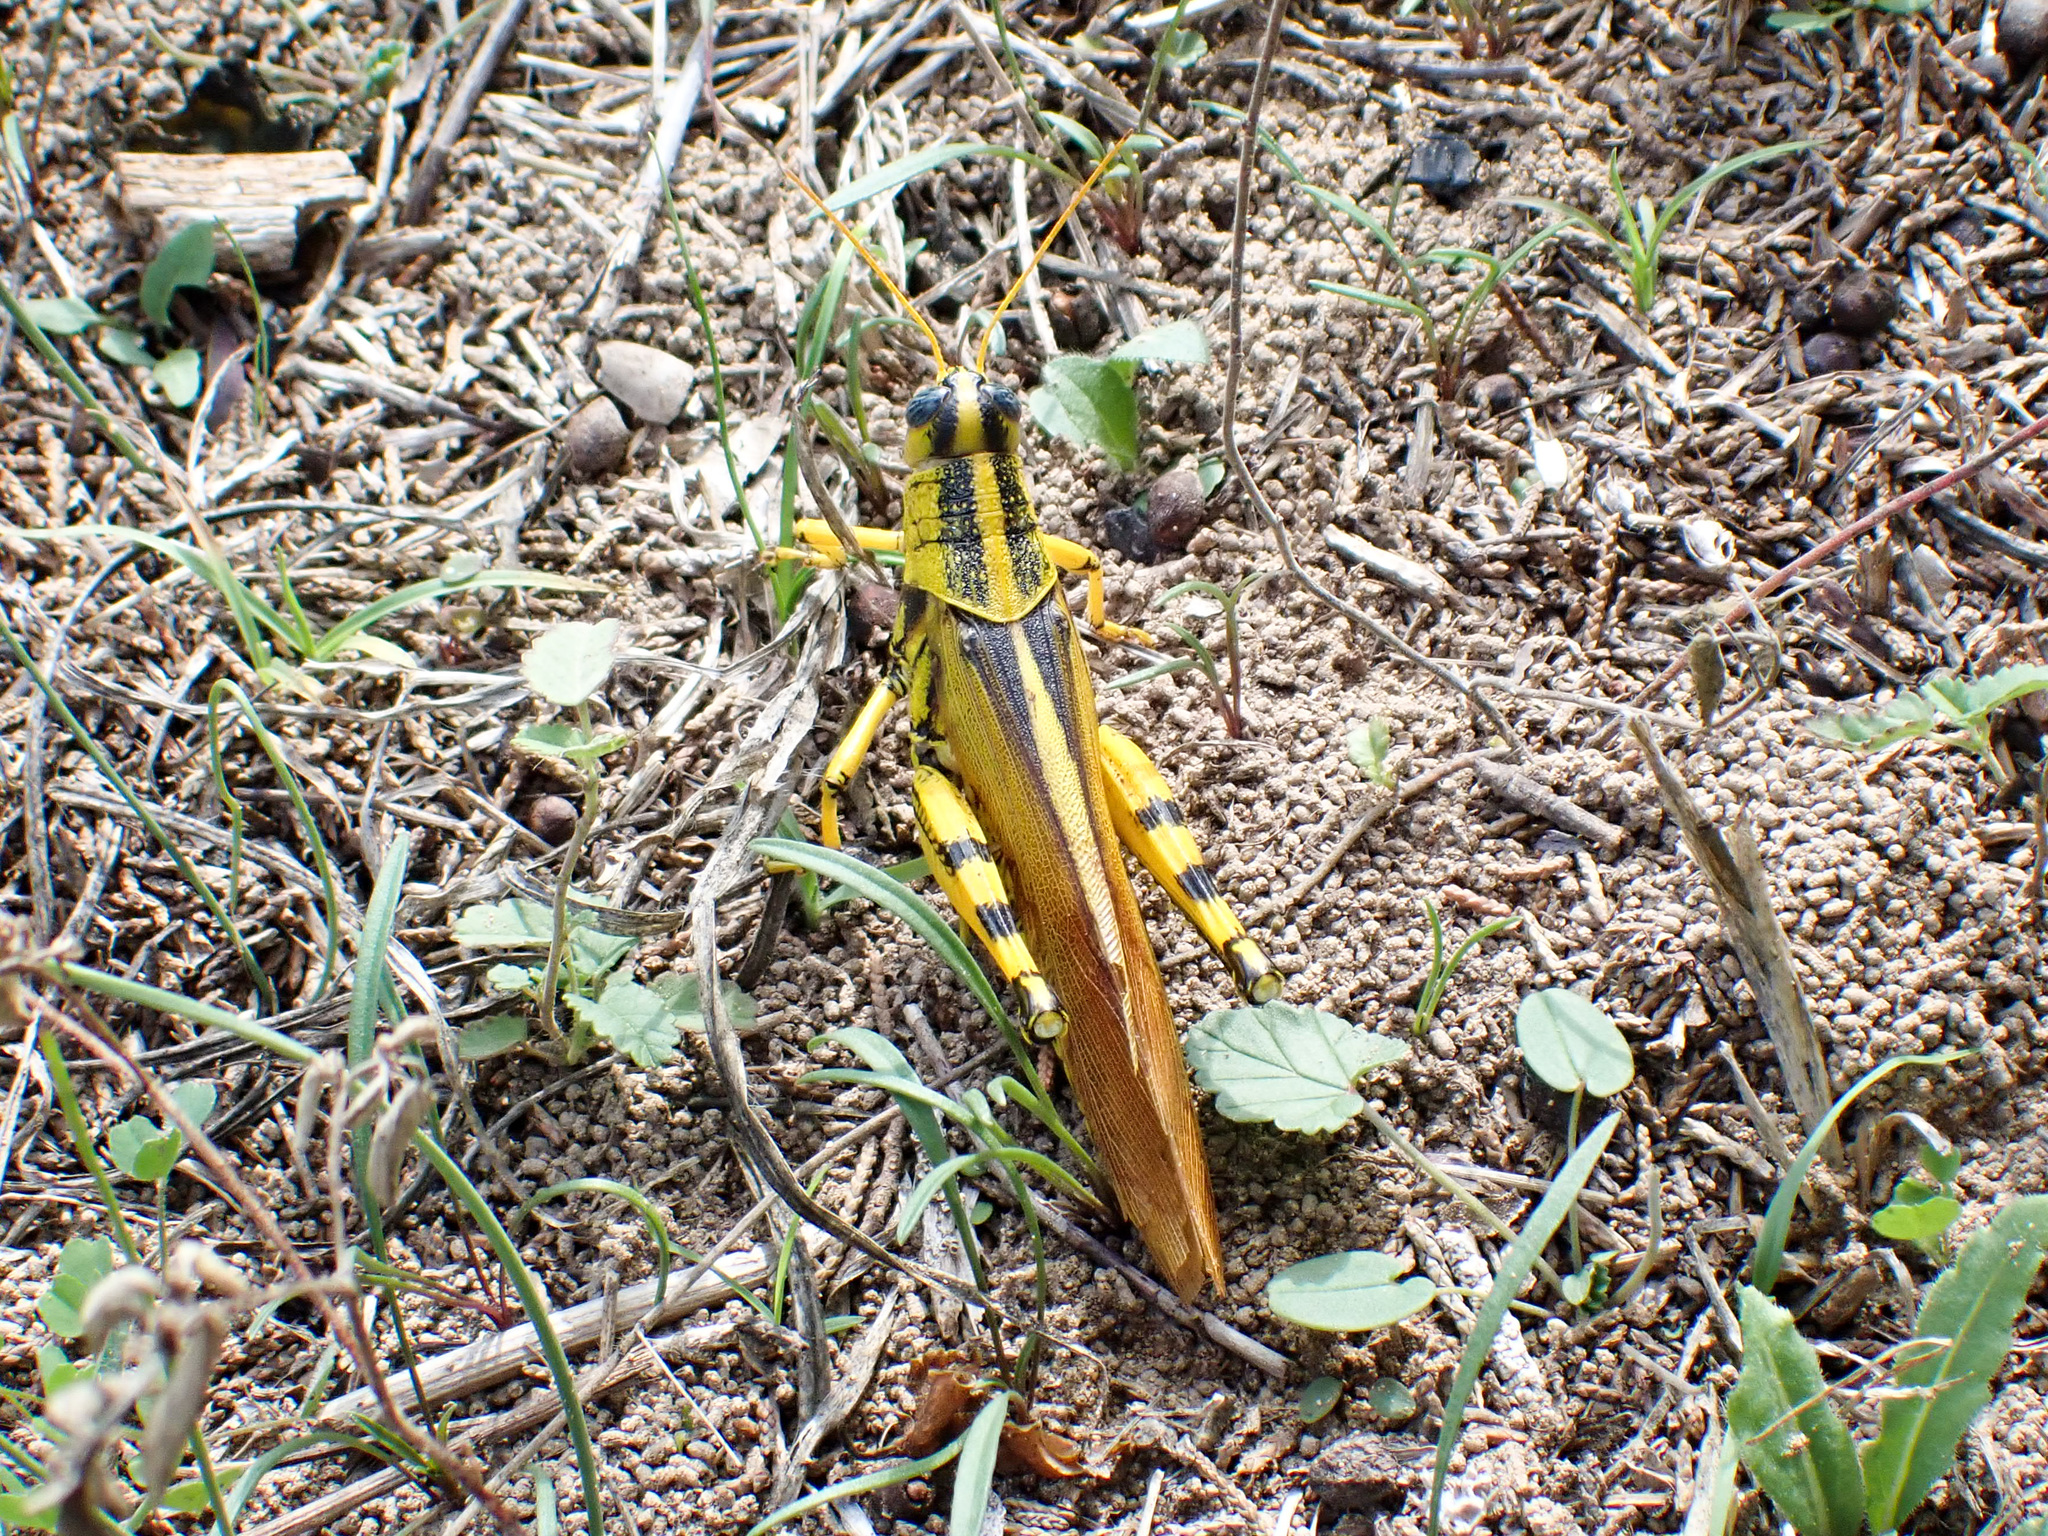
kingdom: Animalia
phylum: Arthropoda
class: Insecta
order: Orthoptera
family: Acrididae
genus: Schistocerca
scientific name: Schistocerca lineata
